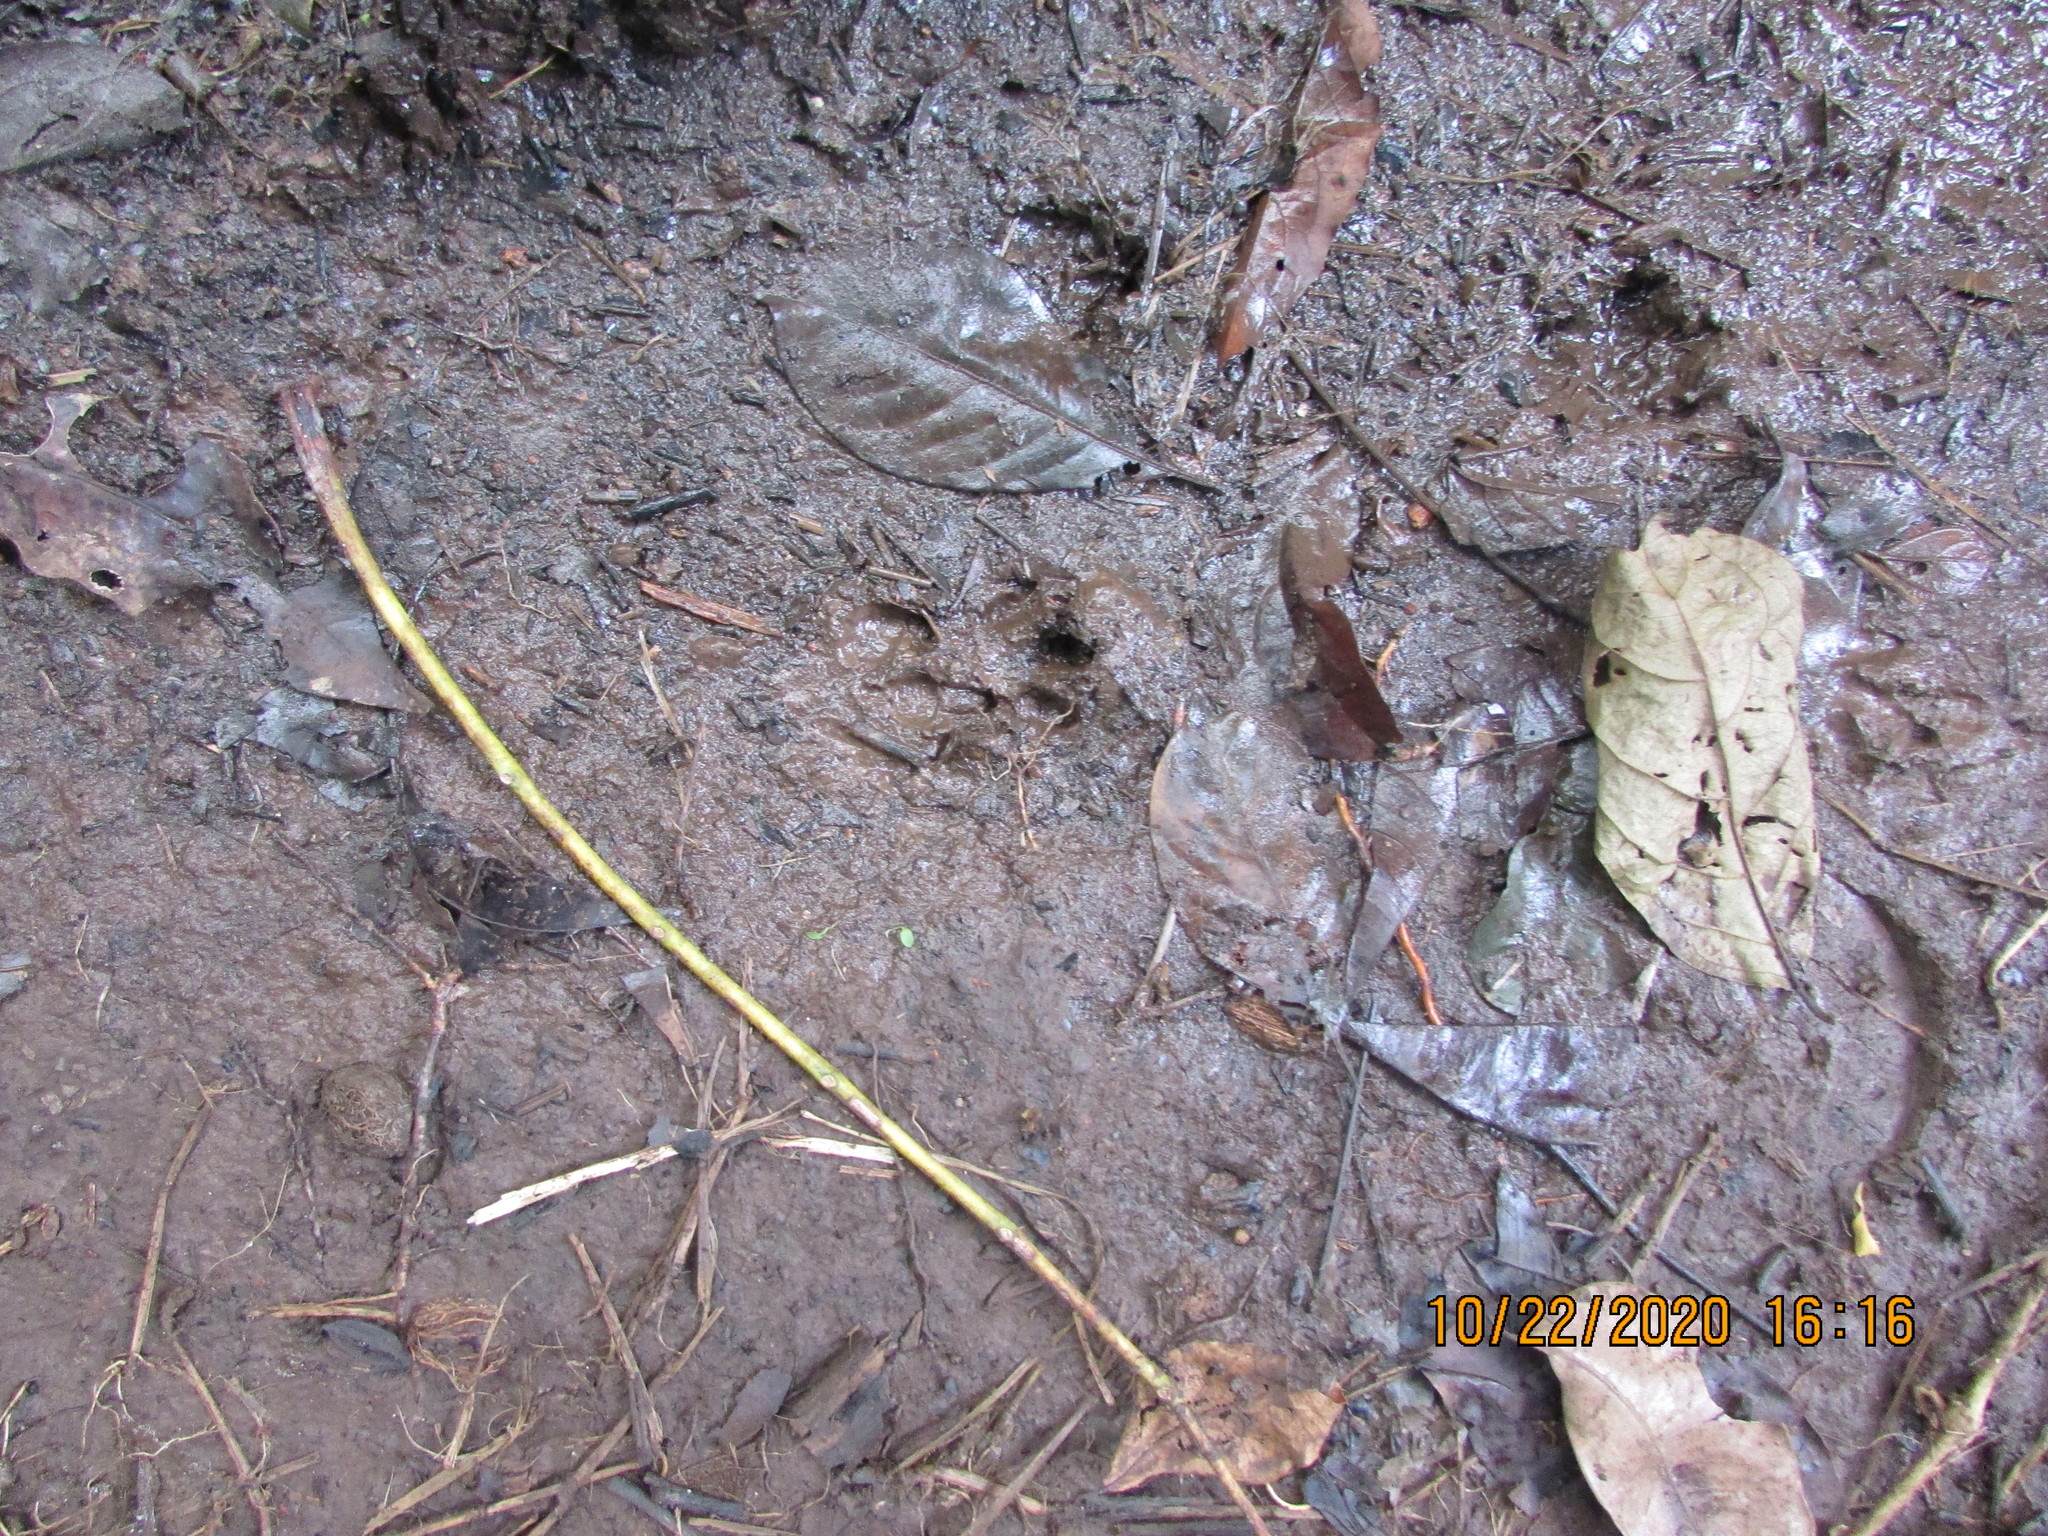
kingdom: Animalia
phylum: Chordata
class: Mammalia
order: Rodentia
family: Dasyproctidae
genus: Dasyprocta
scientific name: Dasyprocta punctata
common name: Central american agouti
